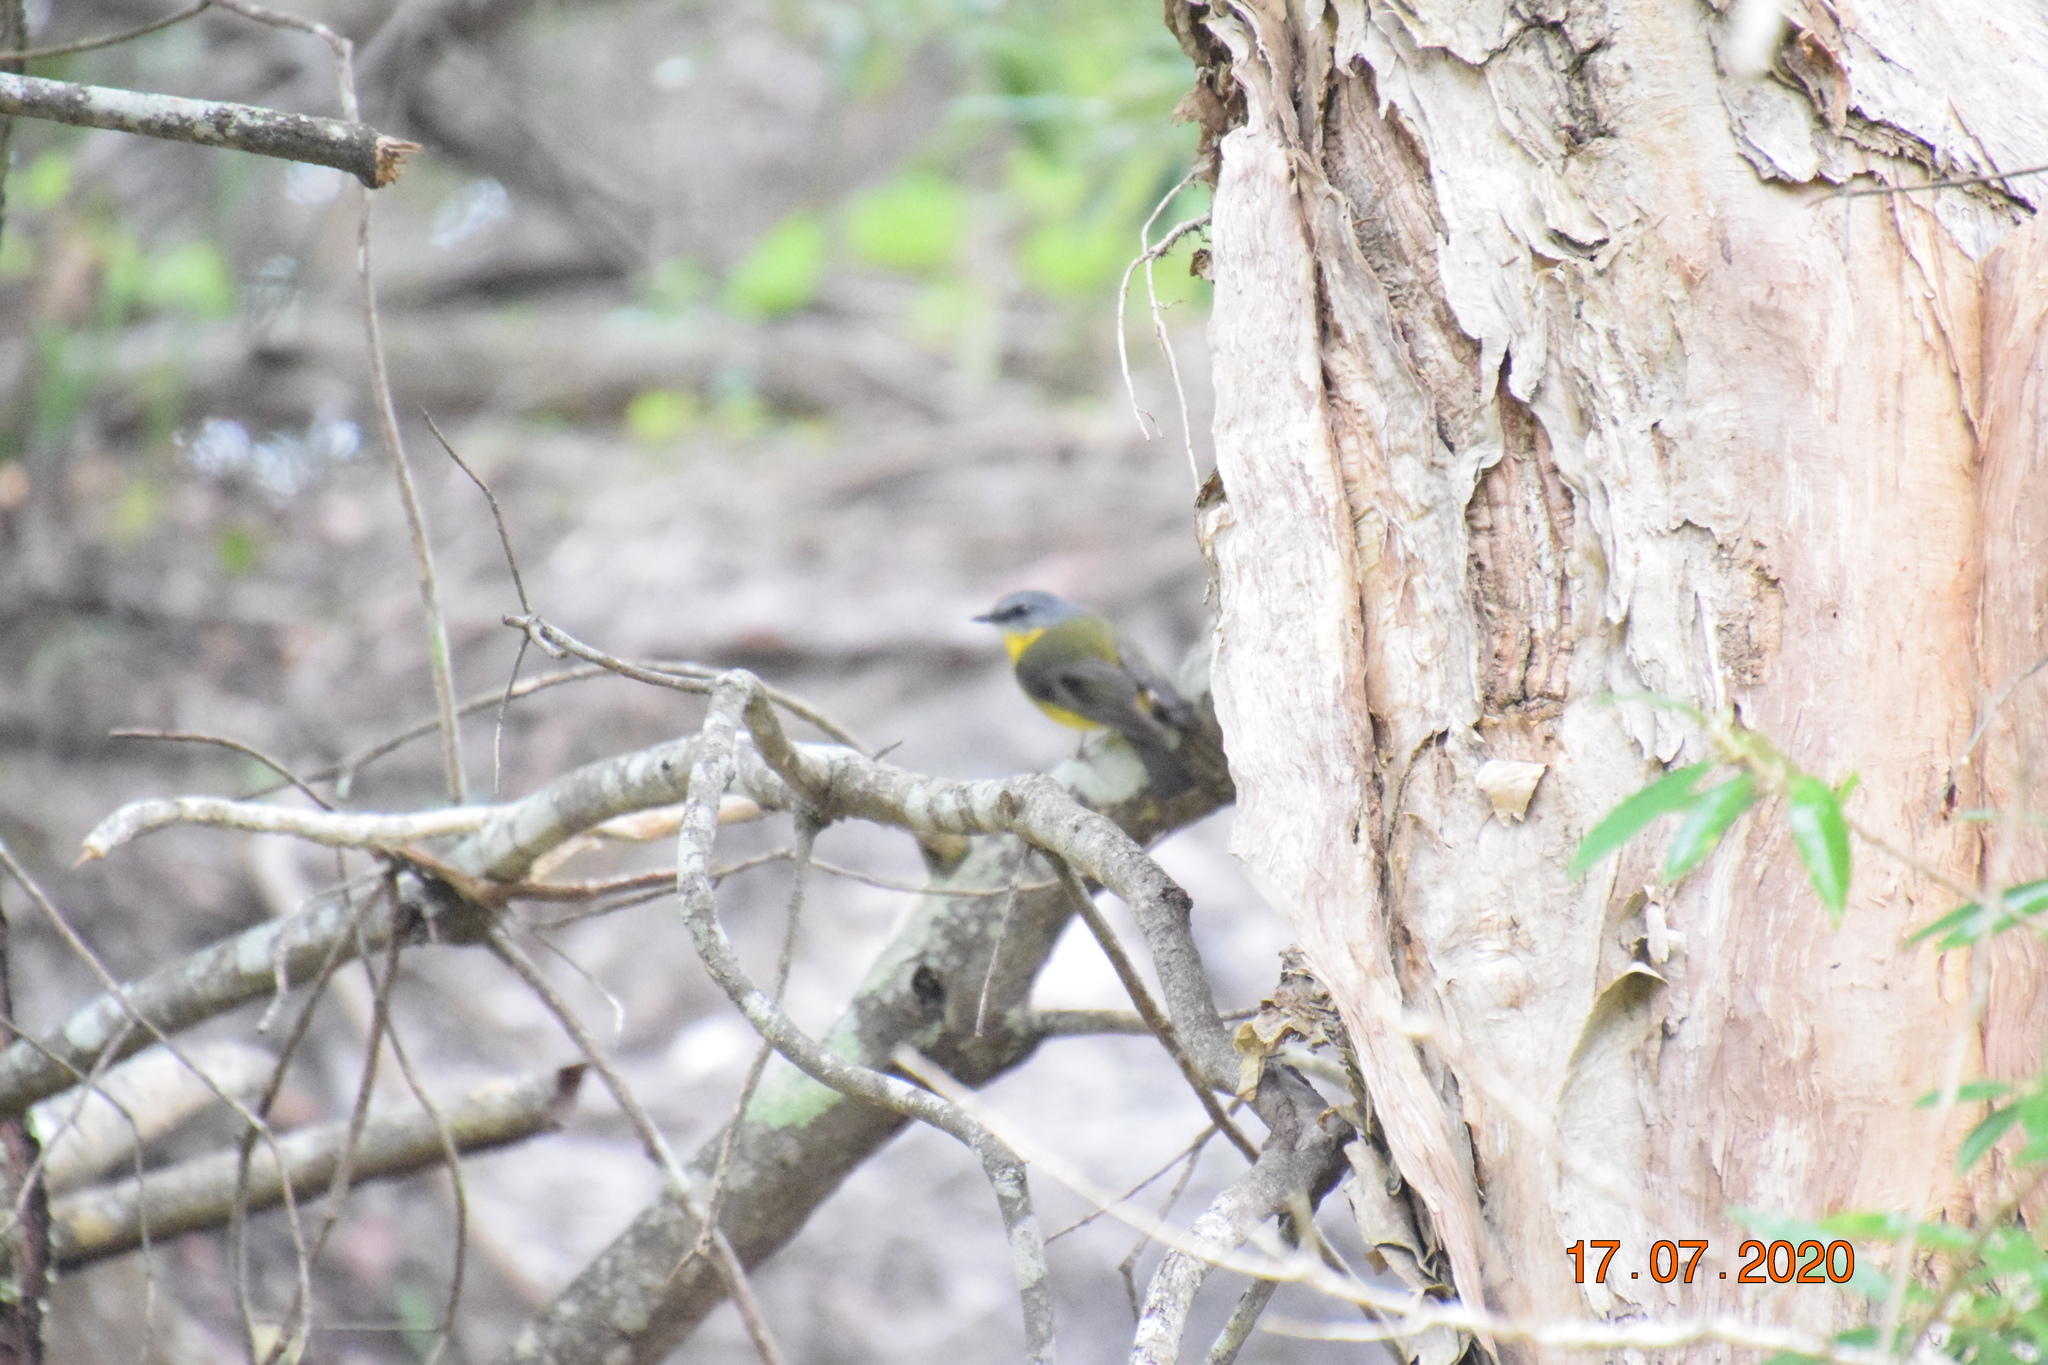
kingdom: Animalia
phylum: Chordata
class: Aves
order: Passeriformes
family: Petroicidae
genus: Eopsaltria
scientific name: Eopsaltria australis
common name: Eastern yellow robin
